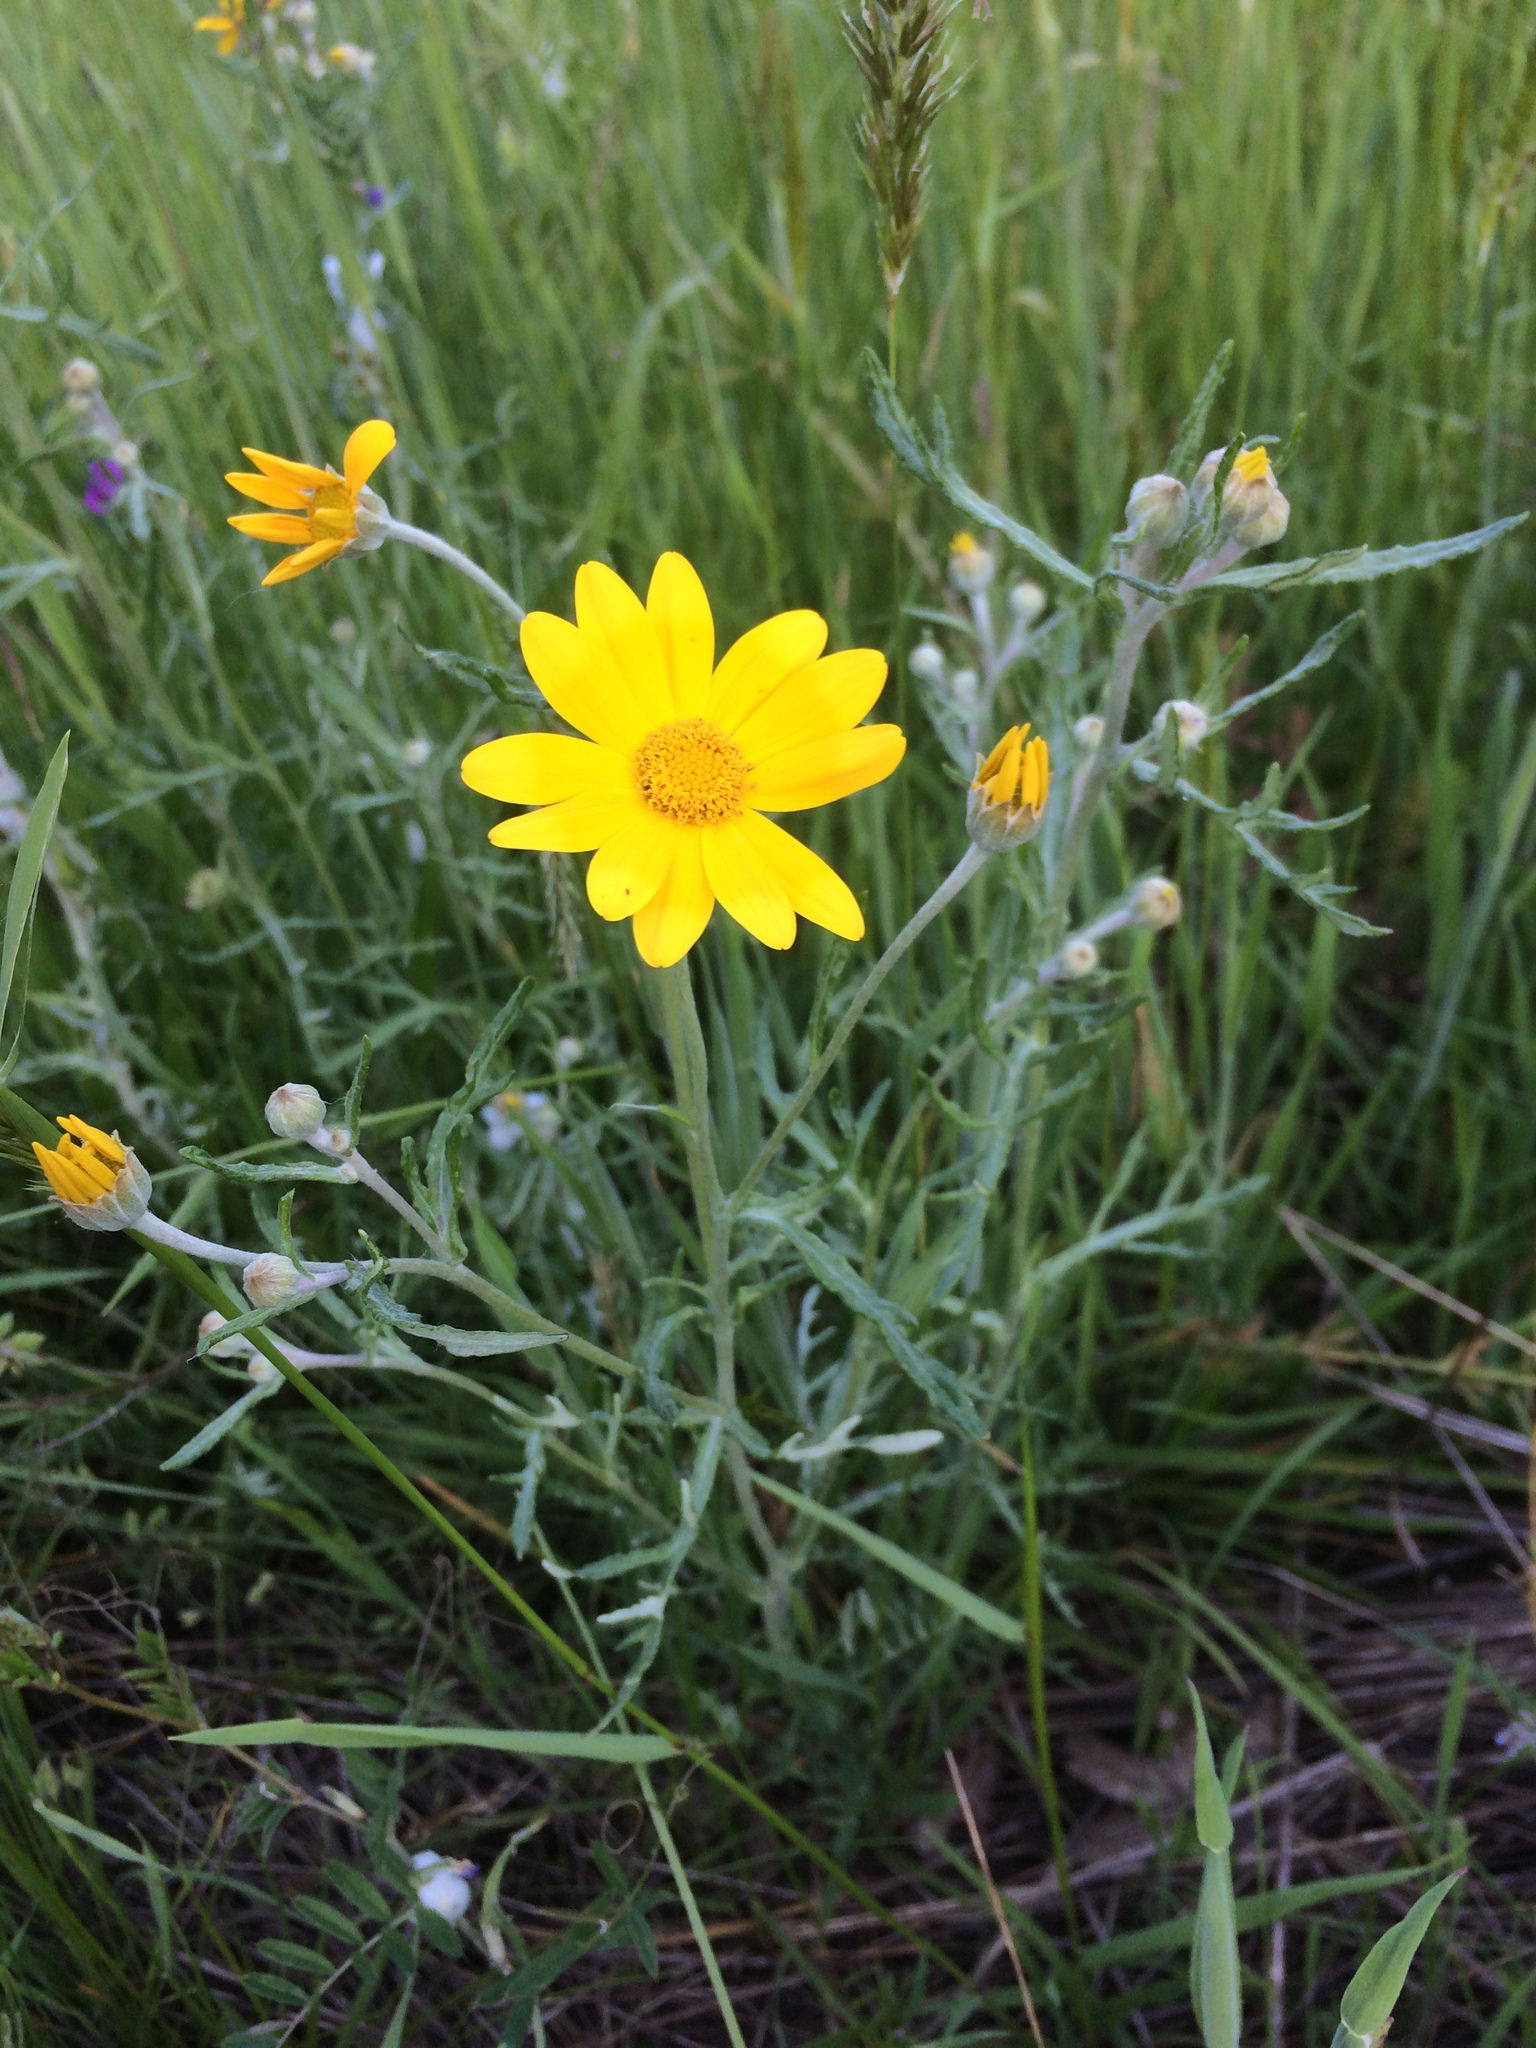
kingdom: Plantae
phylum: Tracheophyta
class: Magnoliopsida
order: Asterales
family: Asteraceae
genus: Eriophyllum
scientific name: Eriophyllum lanatum
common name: Common woolly-sunflower
